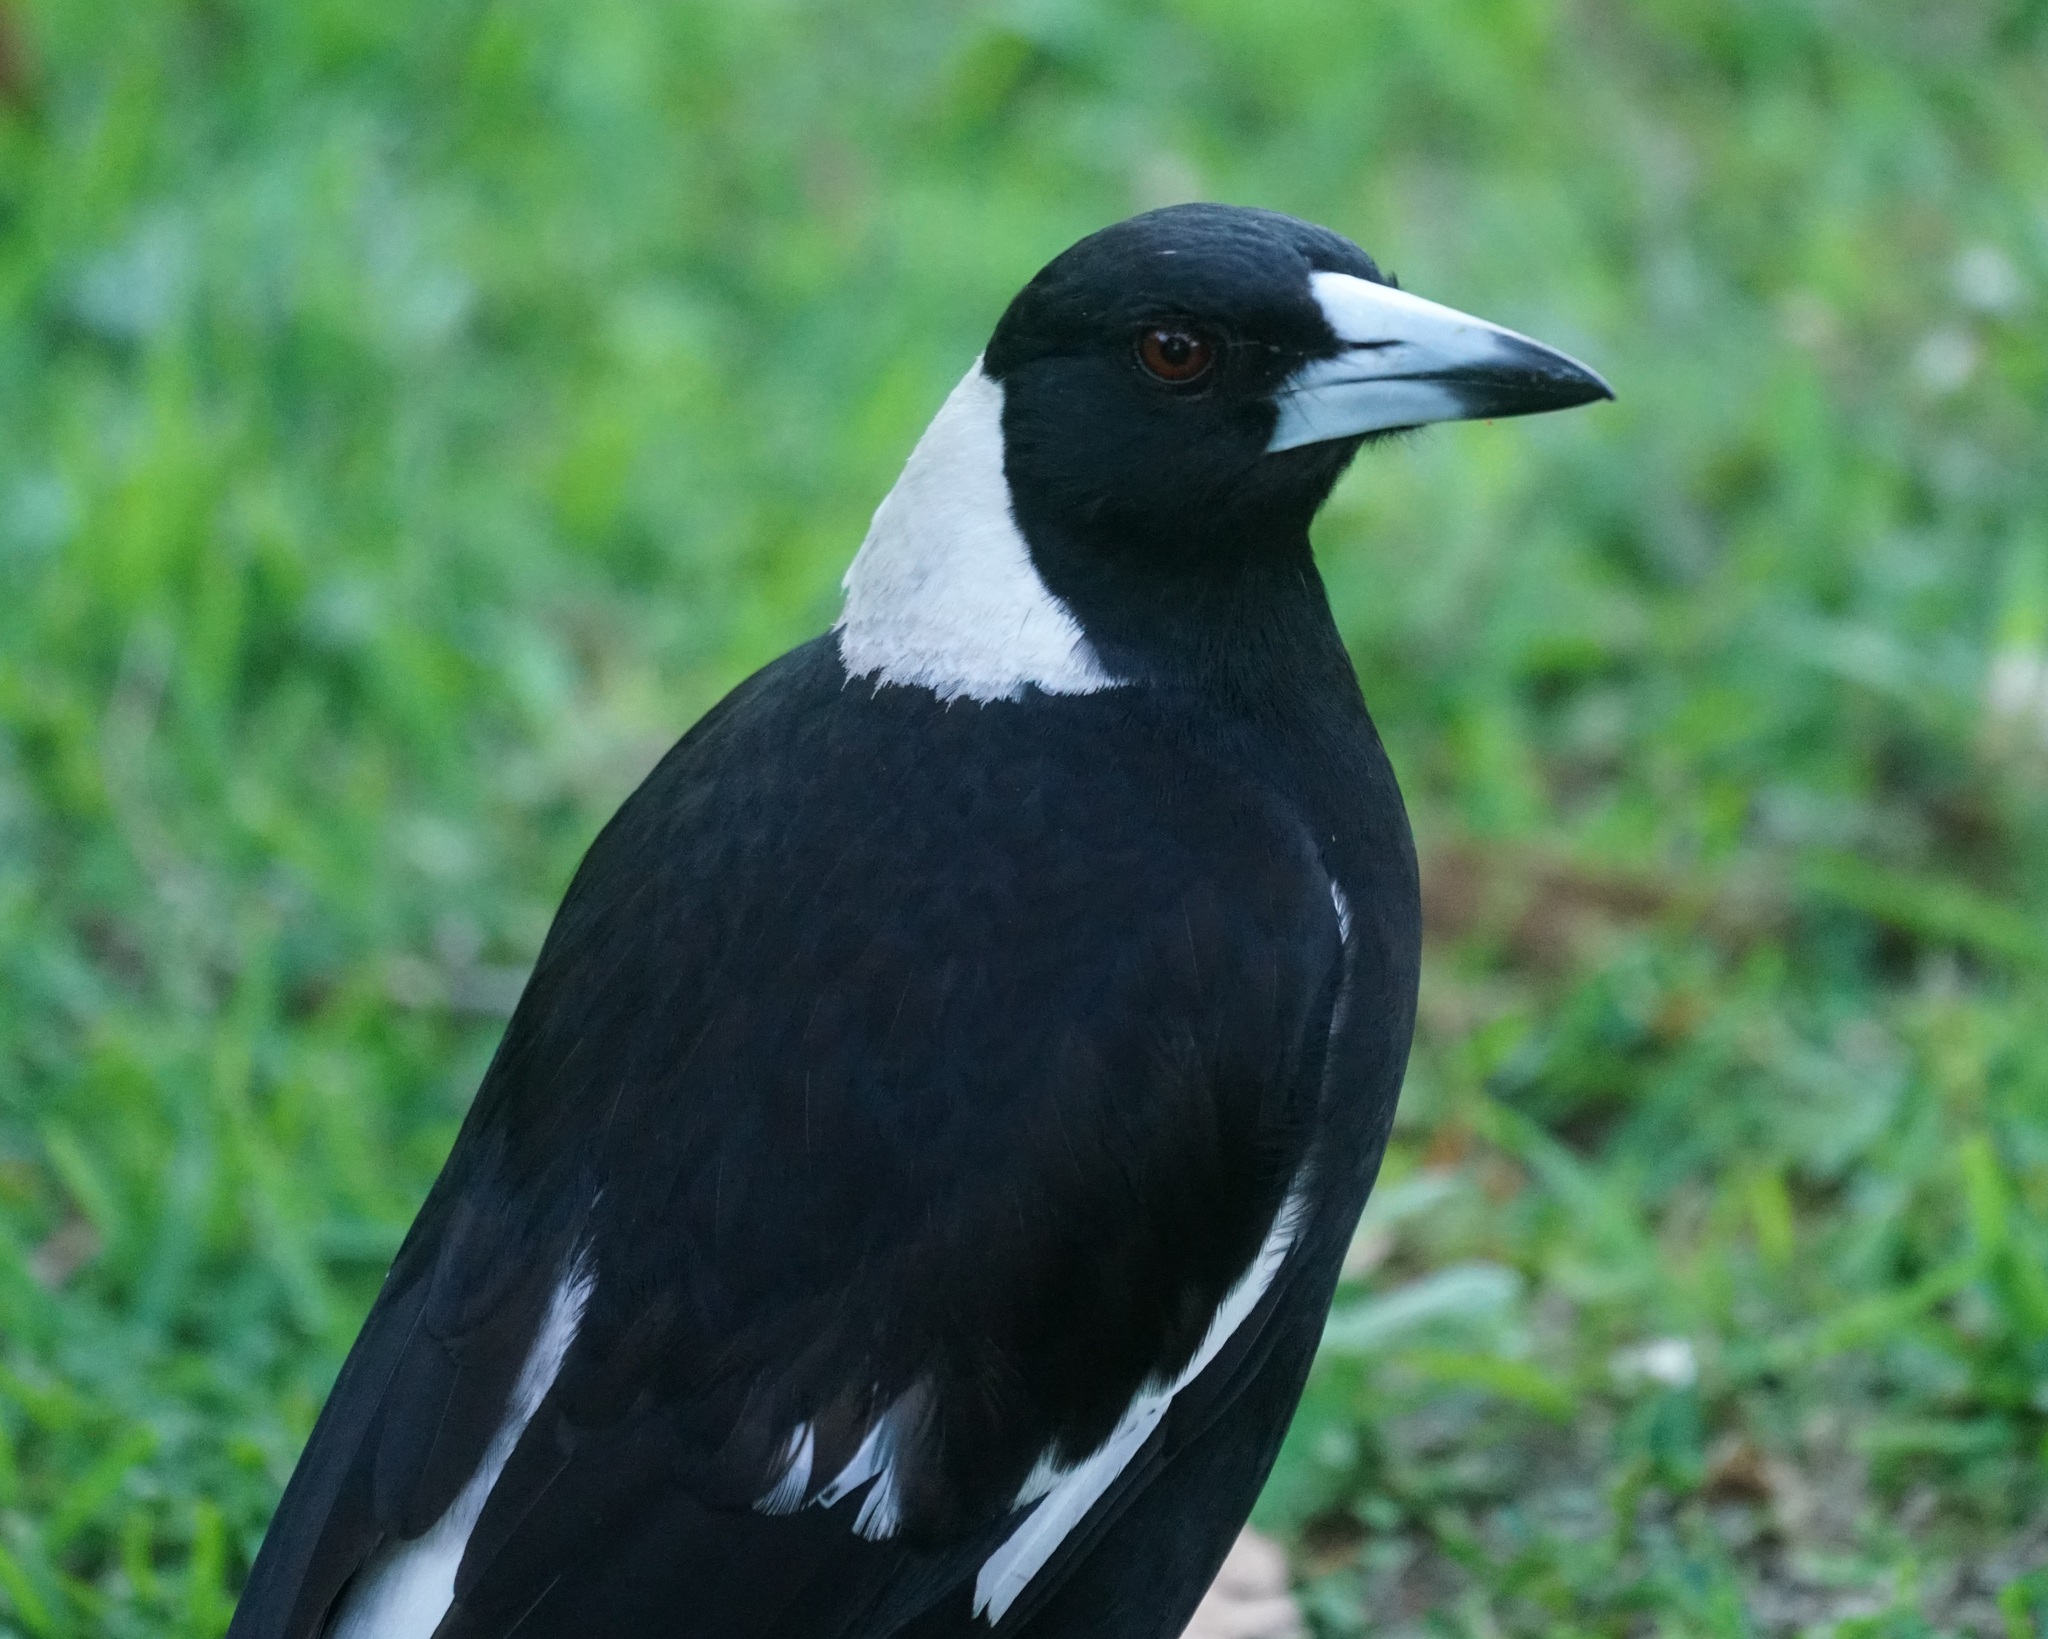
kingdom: Animalia
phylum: Chordata
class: Aves
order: Passeriformes
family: Cracticidae
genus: Gymnorhina
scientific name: Gymnorhina tibicen
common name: Australian magpie
